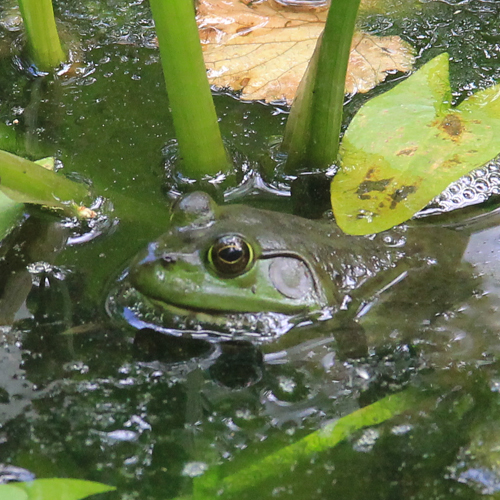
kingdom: Animalia
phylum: Chordata
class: Amphibia
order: Anura
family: Ranidae
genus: Lithobates
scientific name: Lithobates catesbeianus
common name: American bullfrog
